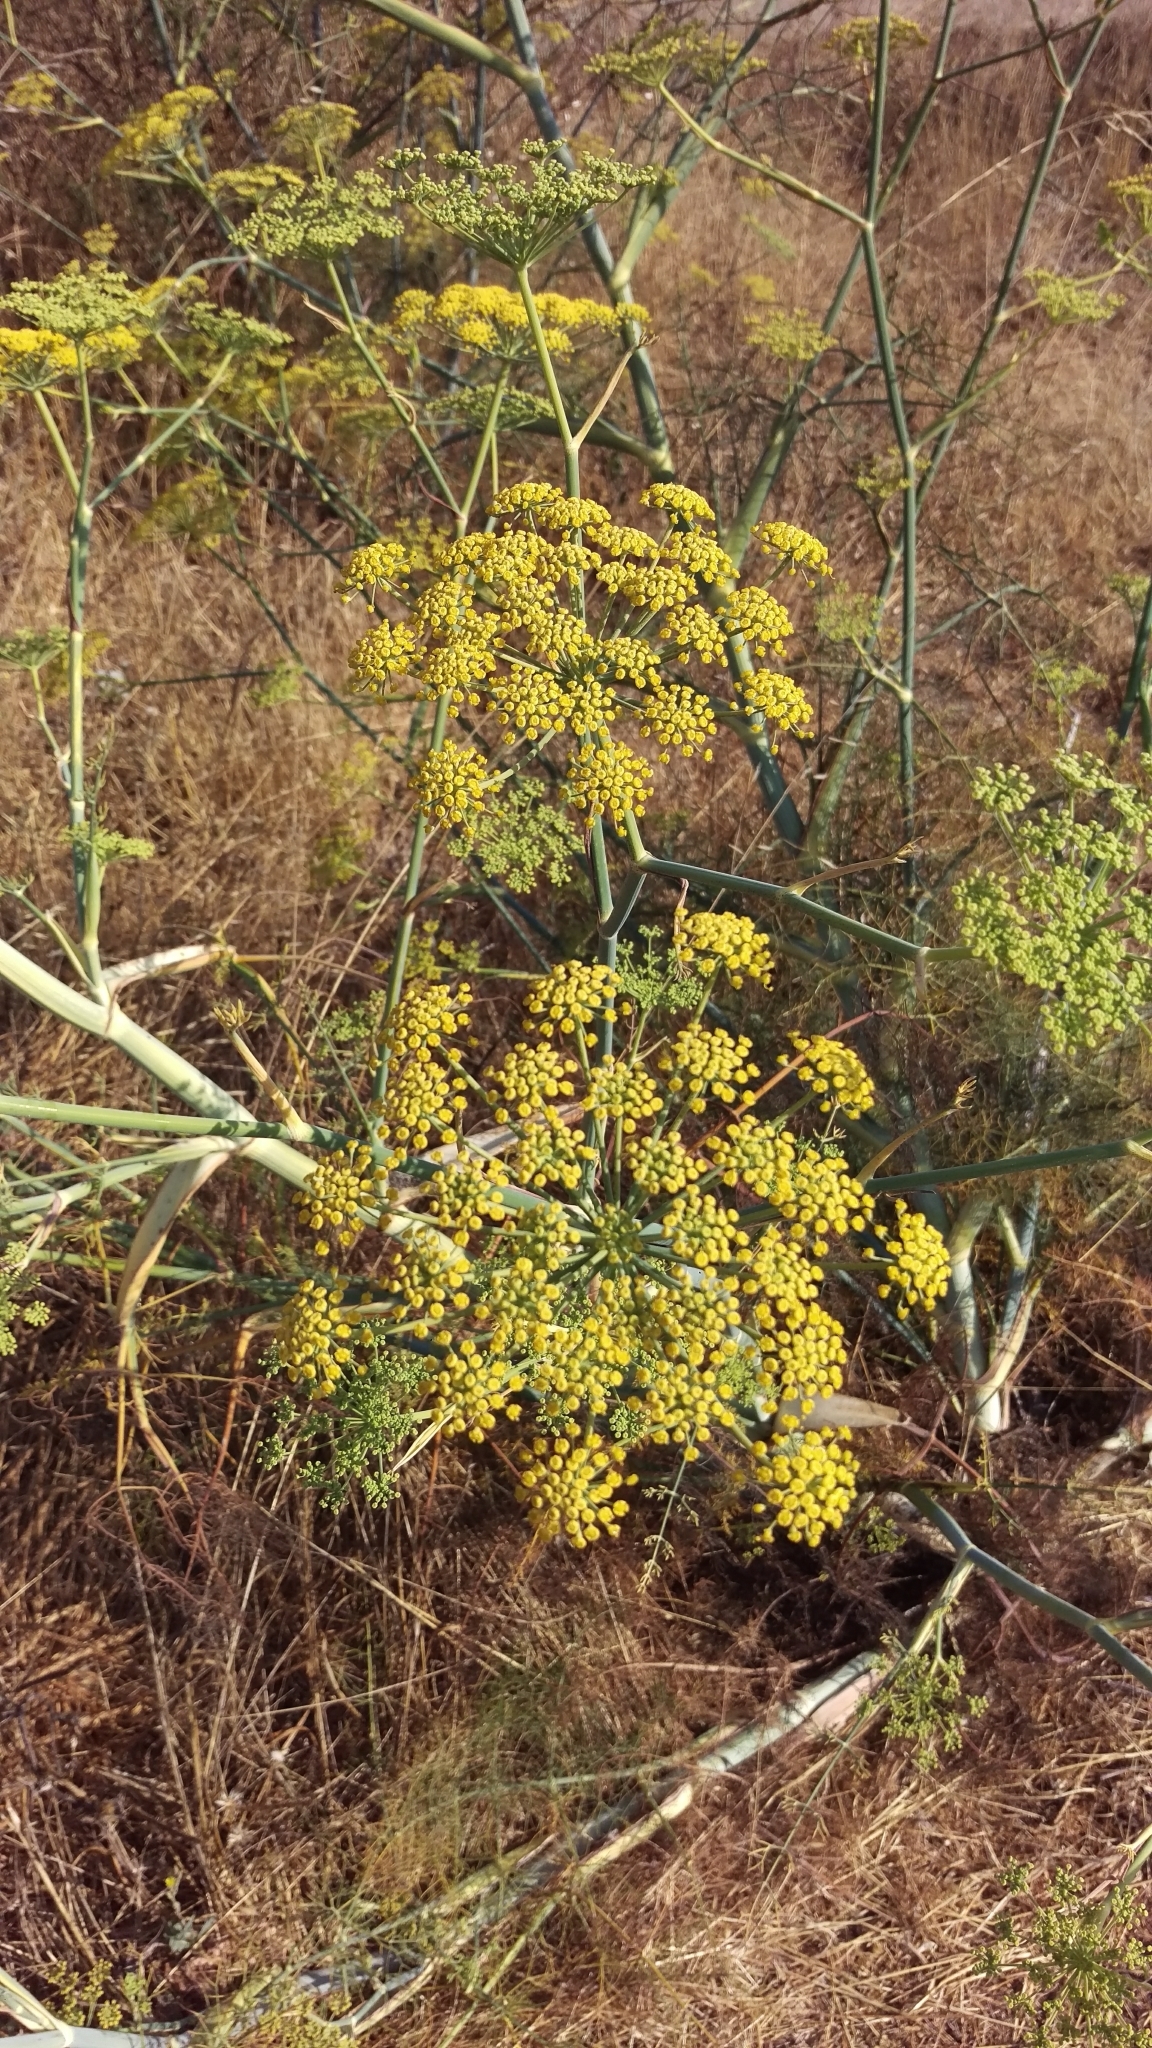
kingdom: Plantae
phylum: Tracheophyta
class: Magnoliopsida
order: Apiales
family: Apiaceae
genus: Foeniculum
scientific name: Foeniculum vulgare
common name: Fennel
